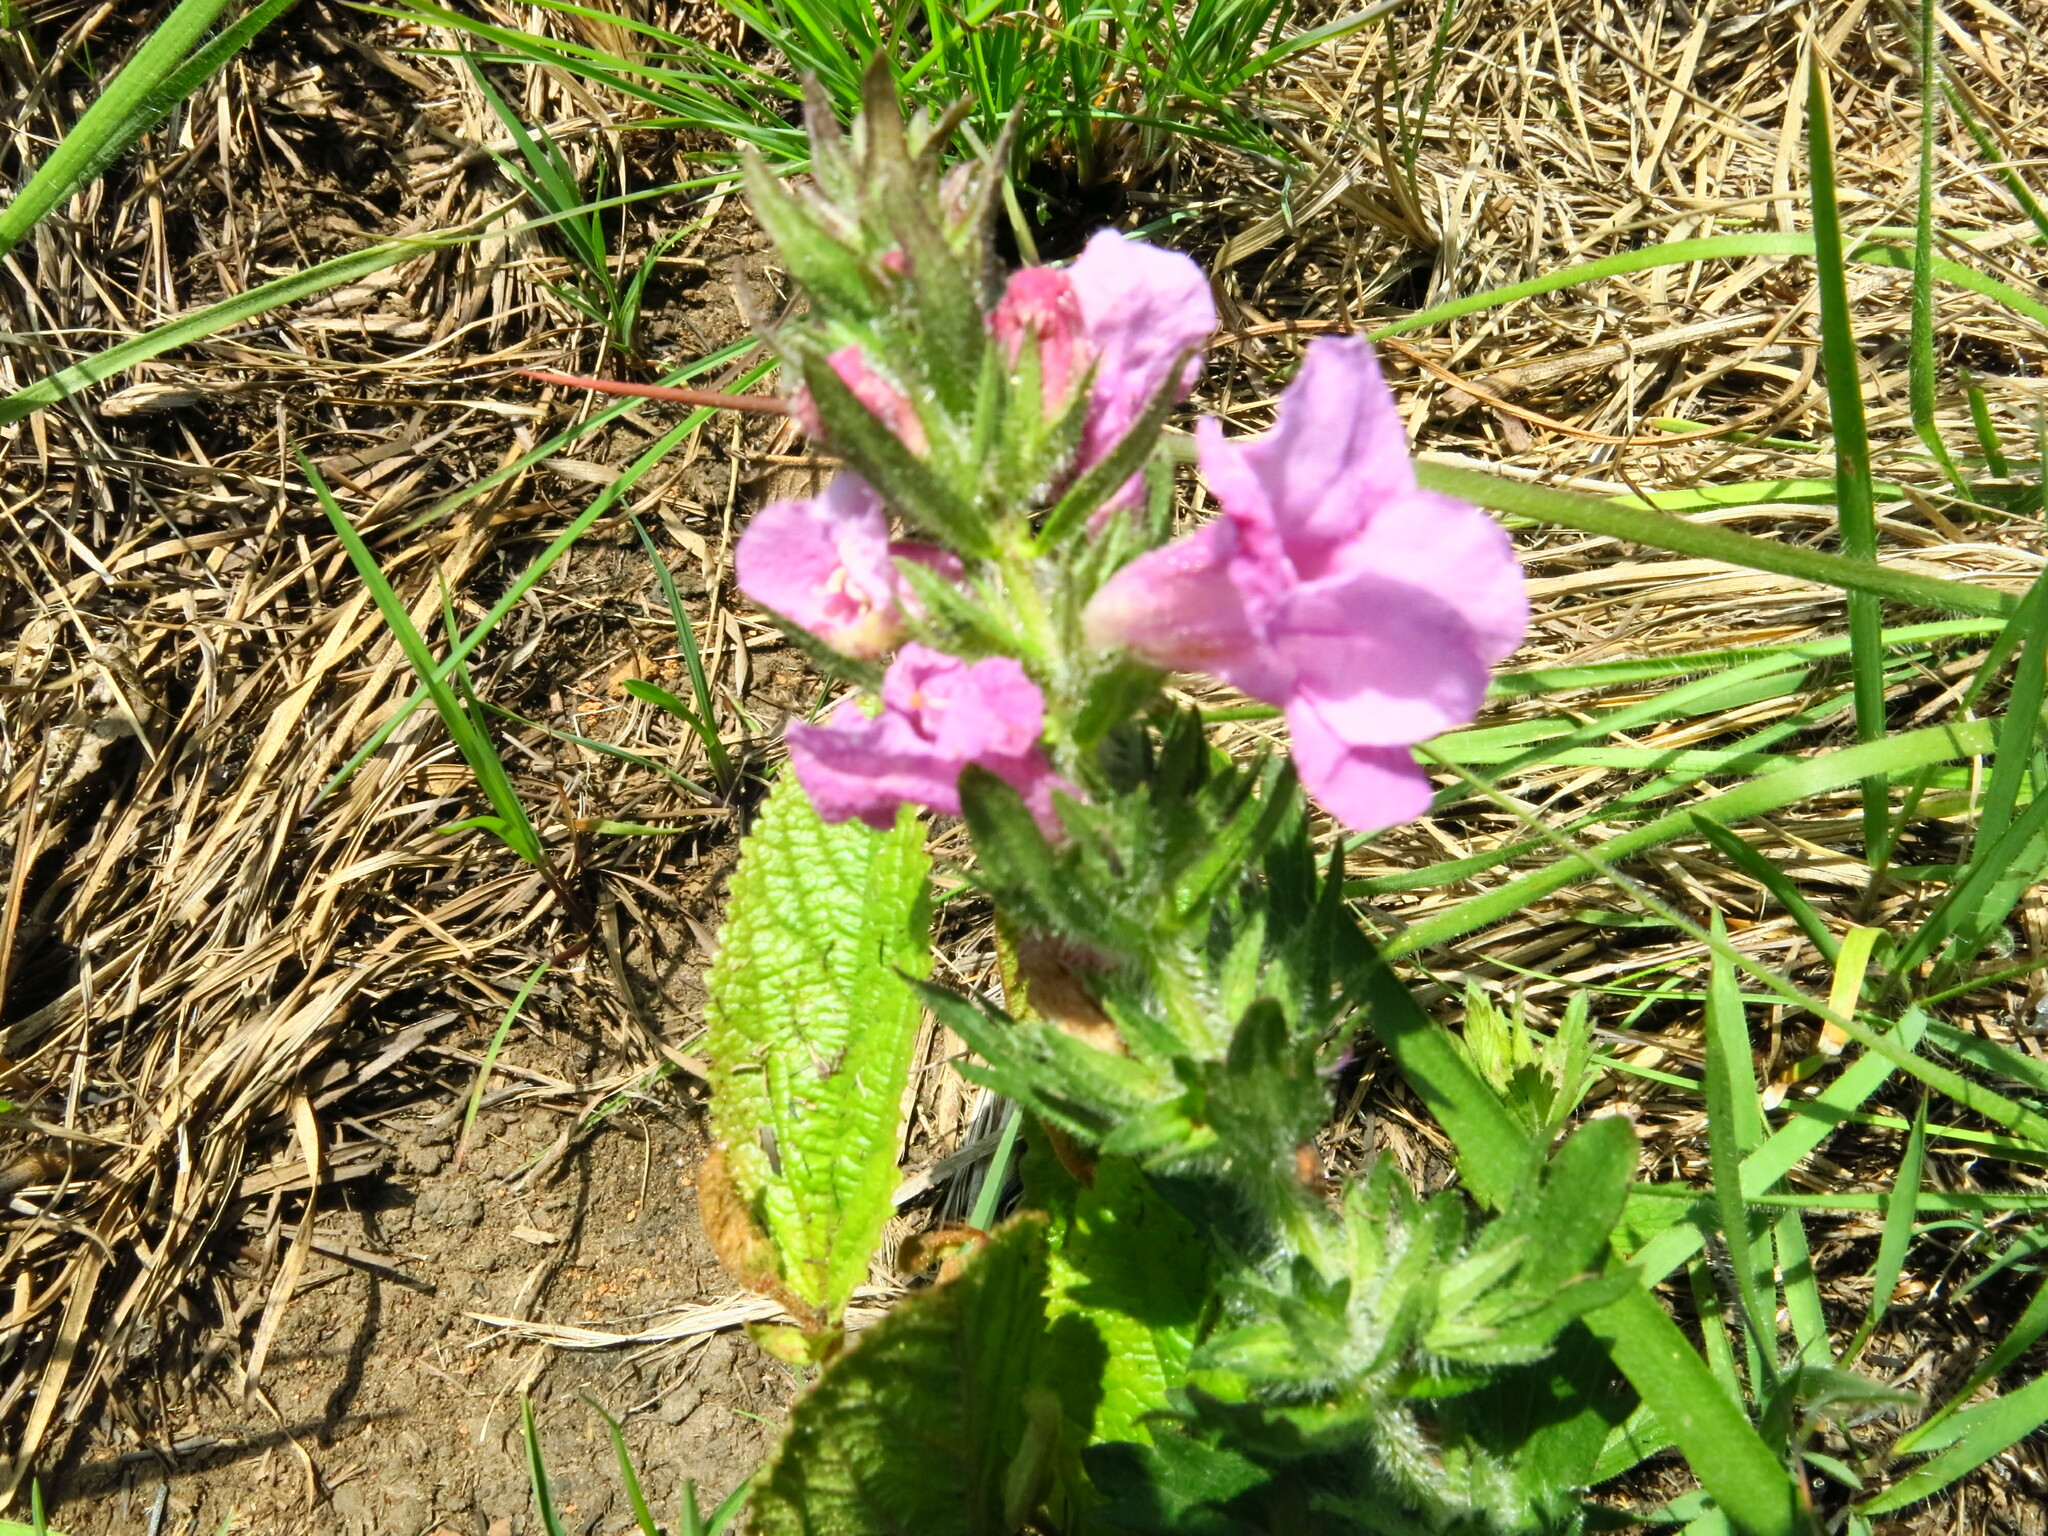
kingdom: Plantae
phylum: Tracheophyta
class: Magnoliopsida
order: Lamiales
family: Orobanchaceae
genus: Graderia
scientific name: Graderia scabra
